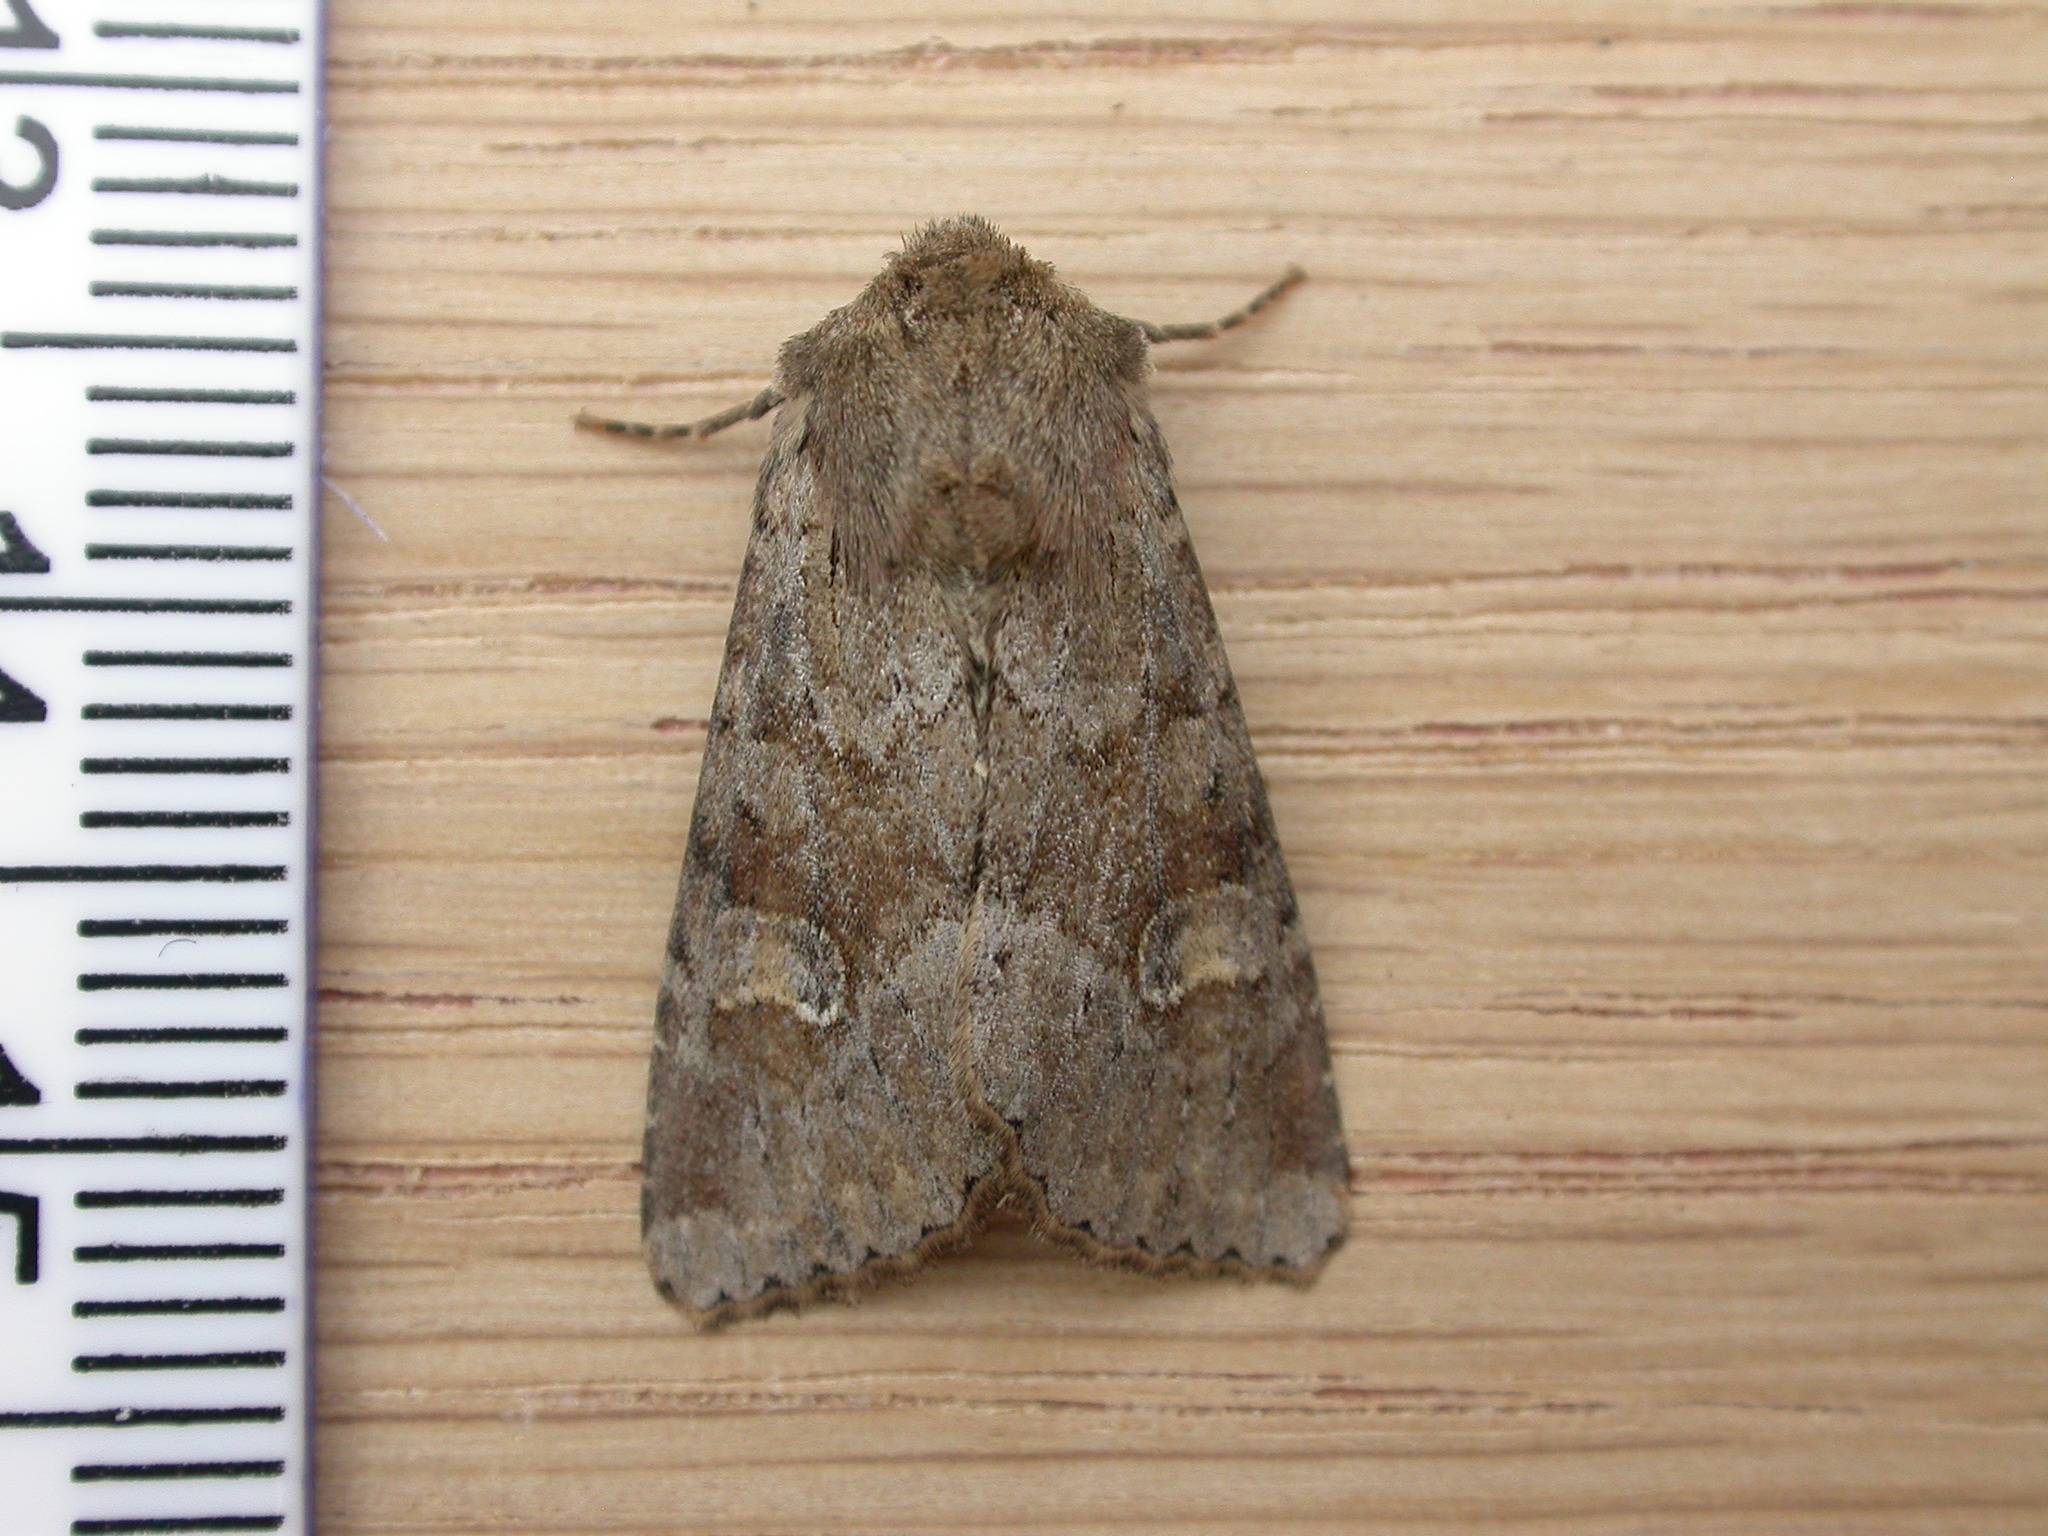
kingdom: Animalia
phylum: Arthropoda
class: Insecta
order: Lepidoptera
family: Noctuidae
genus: Apamea
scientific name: Apamea sordens
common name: Rustic shoulder-knot
